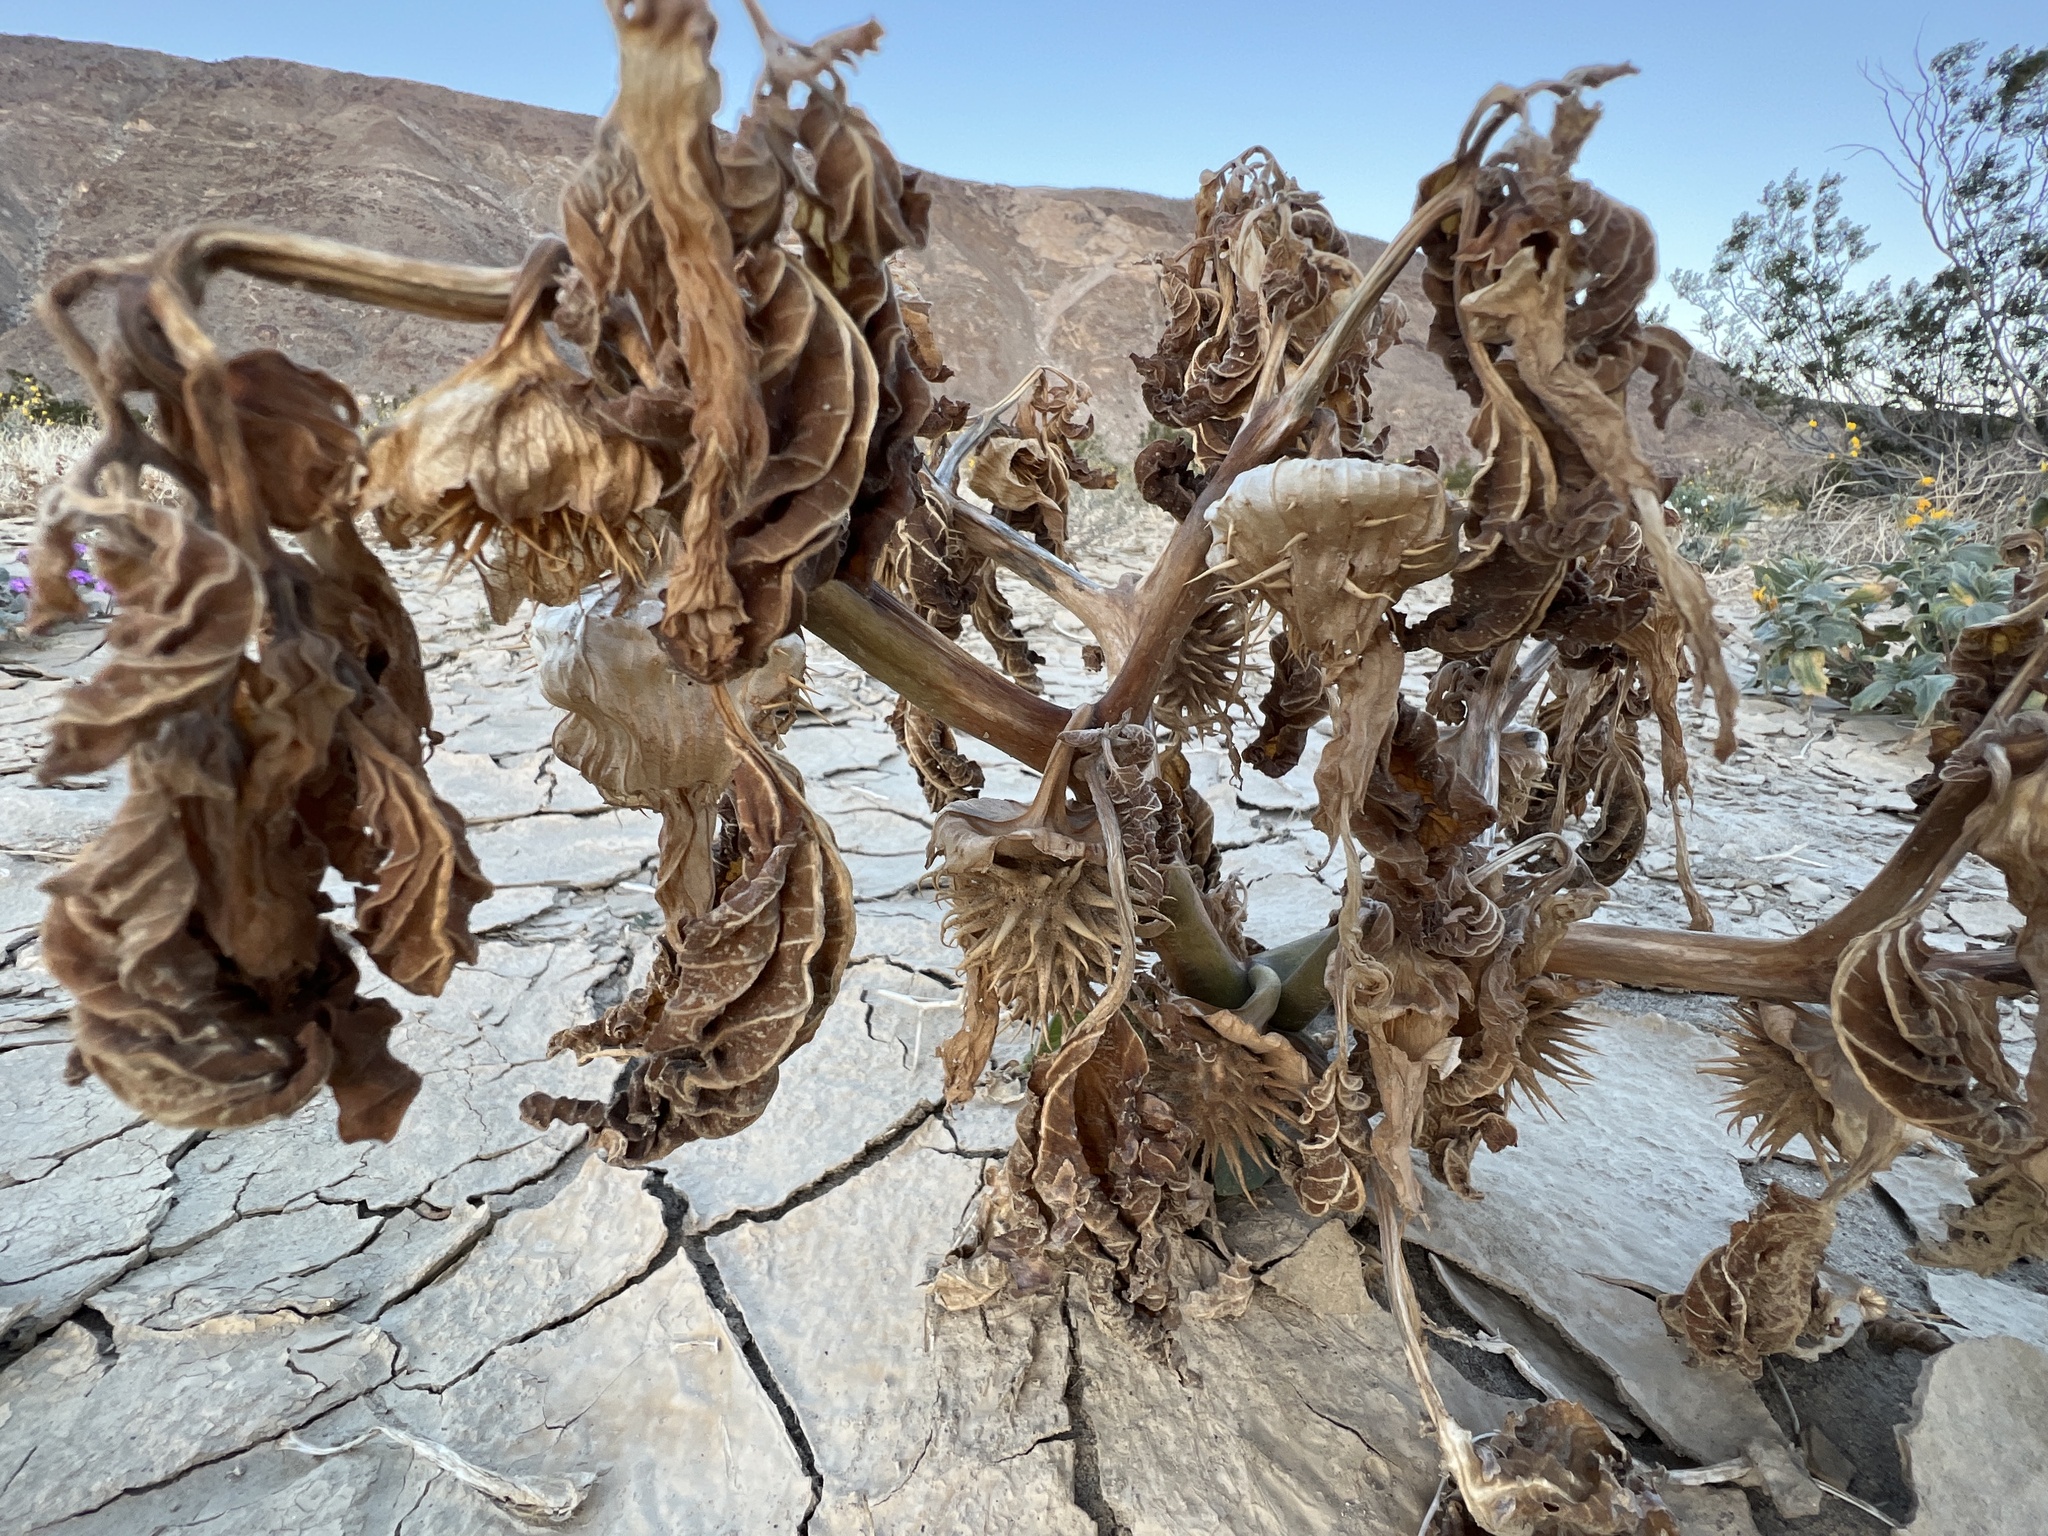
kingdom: Plantae
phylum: Tracheophyta
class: Magnoliopsida
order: Solanales
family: Solanaceae
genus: Datura
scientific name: Datura discolor
